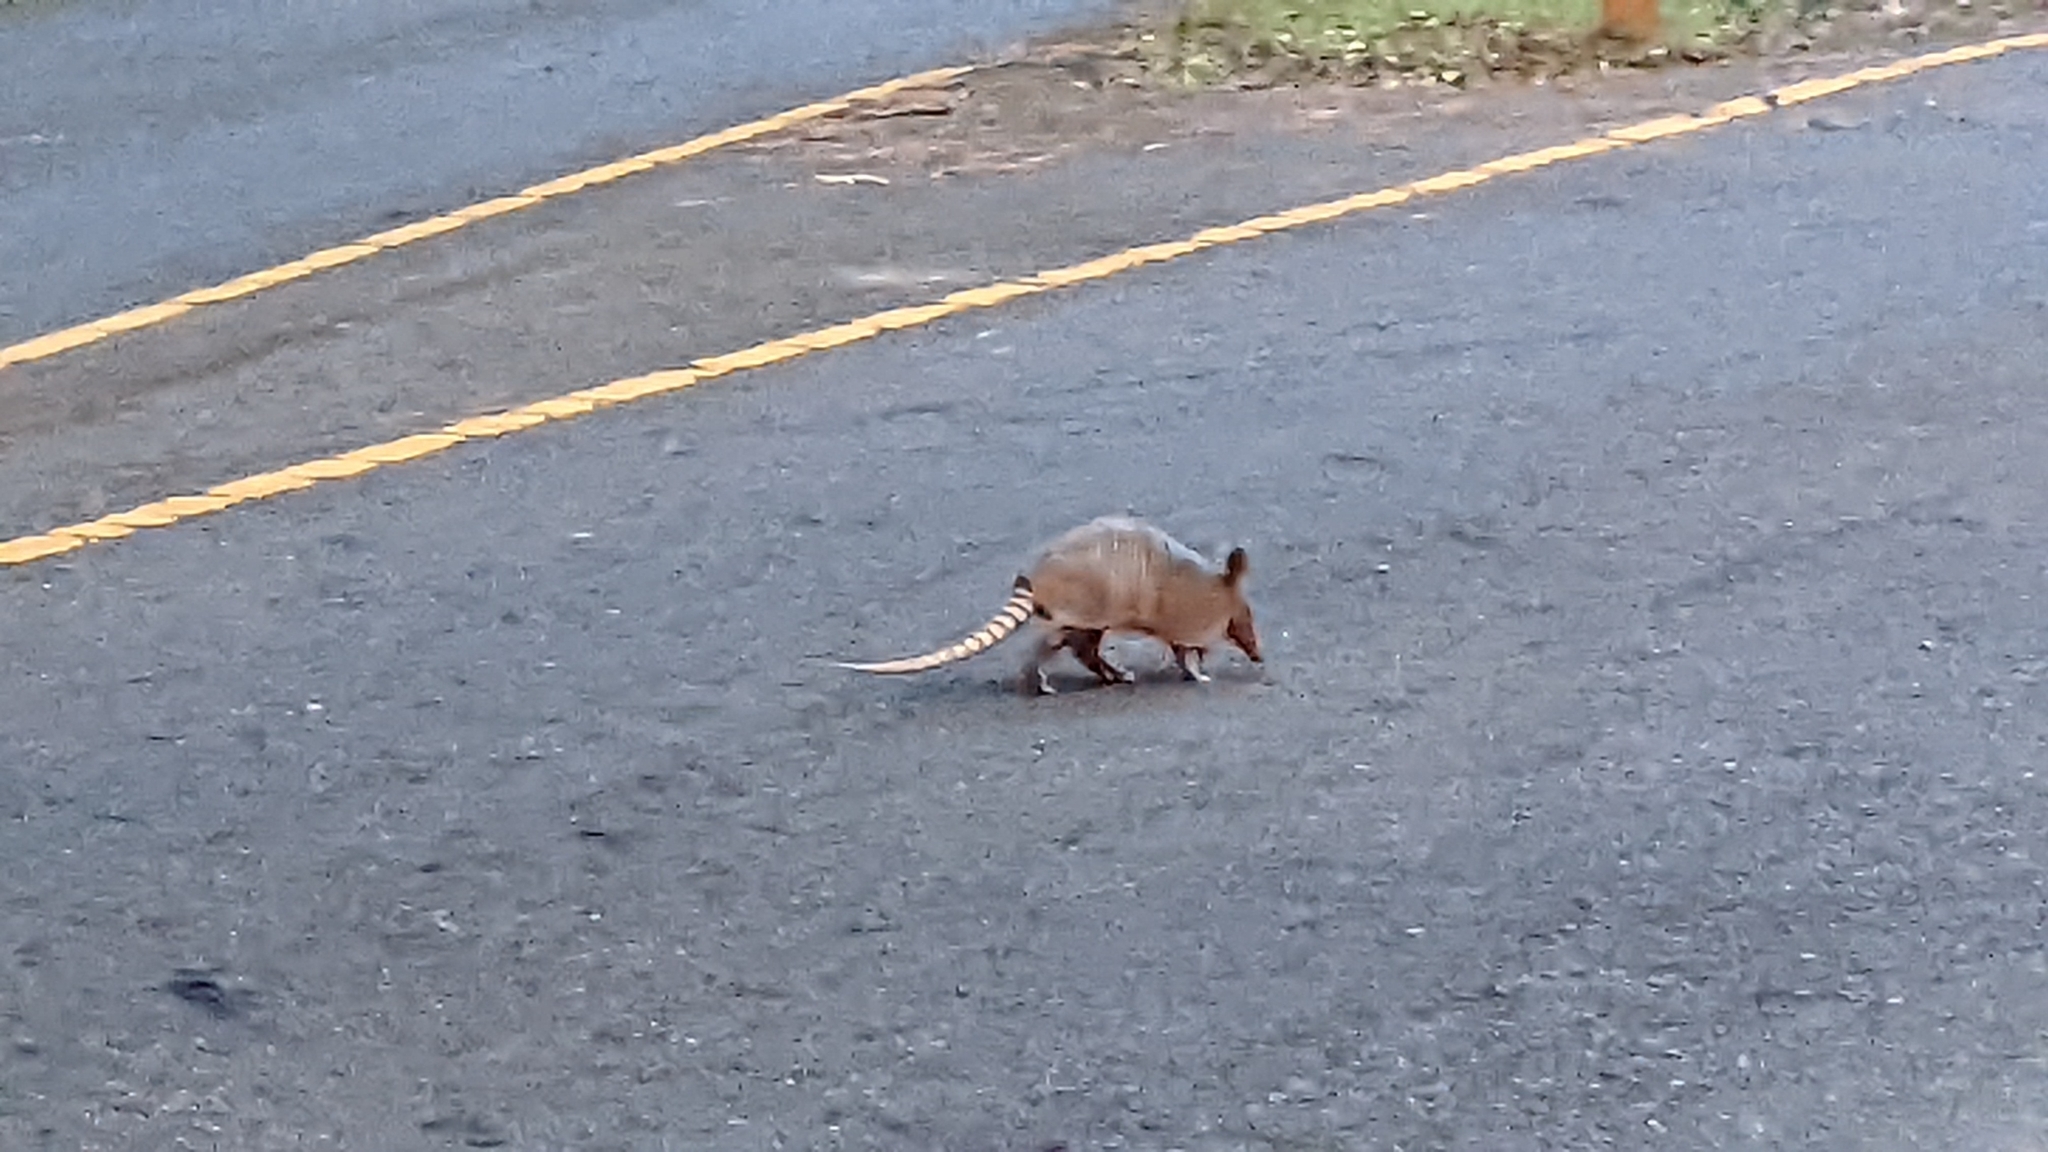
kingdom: Animalia
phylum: Chordata
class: Mammalia
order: Cingulata
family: Dasypodidae
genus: Dasypus
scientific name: Dasypus novemcinctus
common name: Nine-banded armadillo
